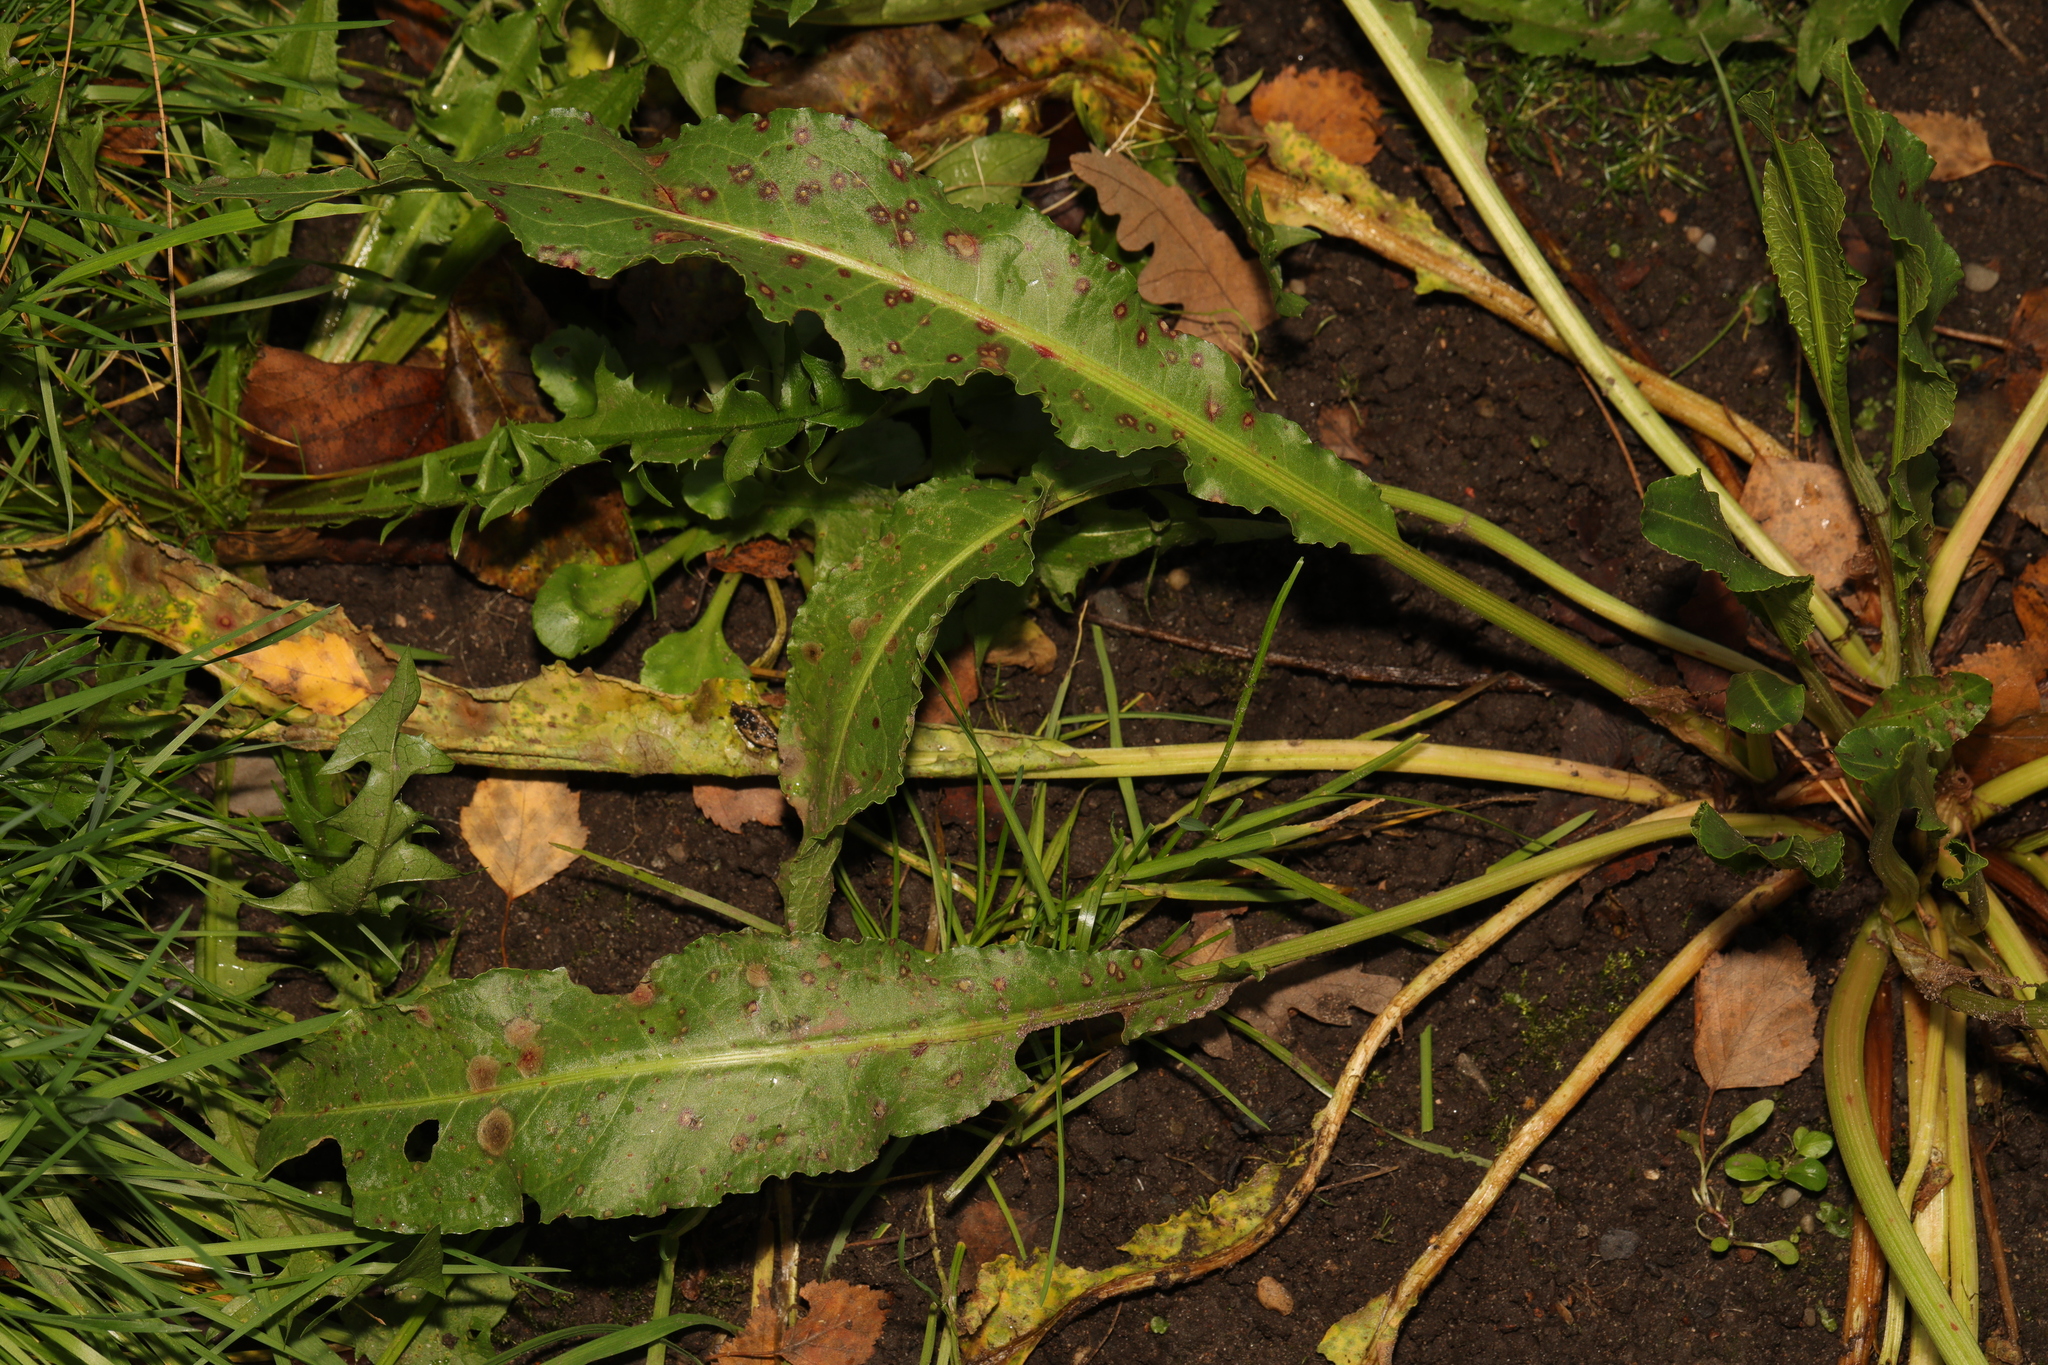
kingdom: Plantae
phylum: Tracheophyta
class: Magnoliopsida
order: Caryophyllales
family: Polygonaceae
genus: Rumex
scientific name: Rumex crispus
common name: Curled dock
